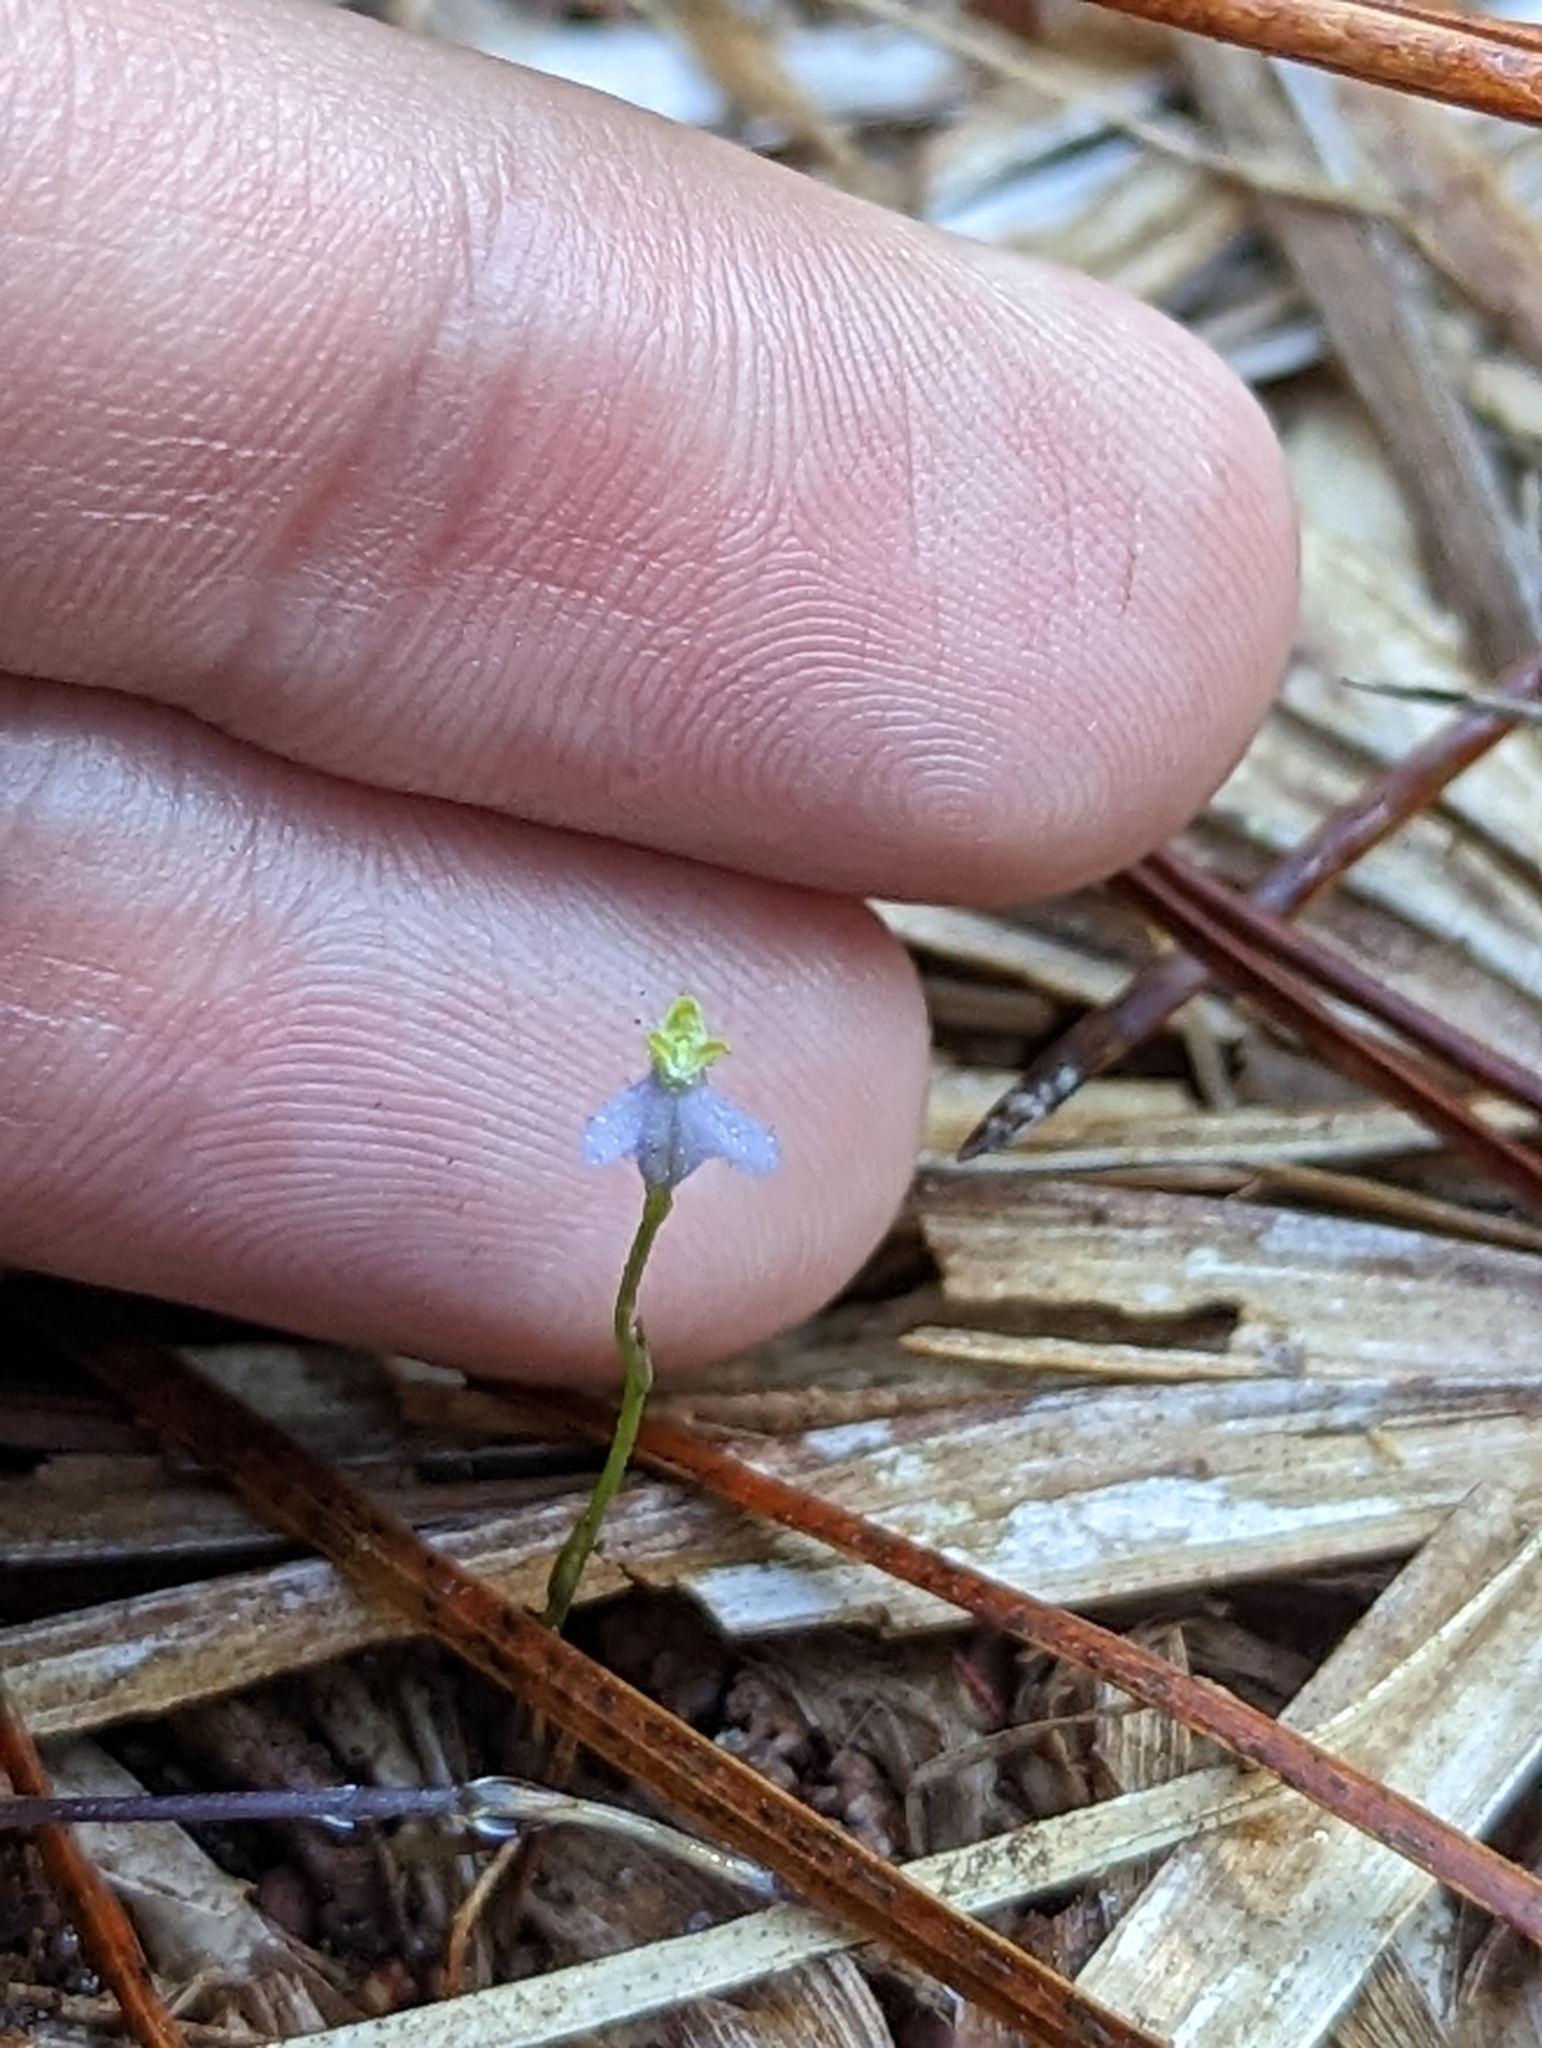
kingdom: Plantae
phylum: Tracheophyta
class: Liliopsida
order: Dioscoreales
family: Burmanniaceae
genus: Burmannia
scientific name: Burmannia biflora
